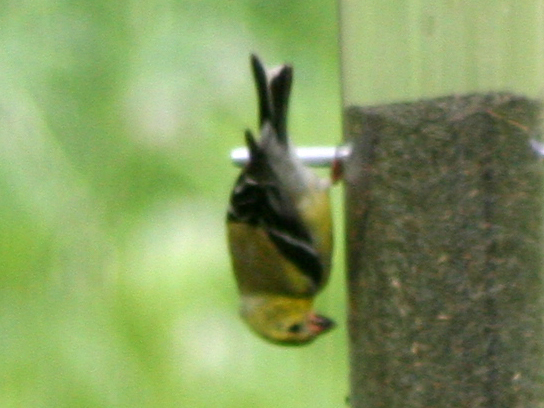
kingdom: Animalia
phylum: Chordata
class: Aves
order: Passeriformes
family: Fringillidae
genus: Spinus
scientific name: Spinus tristis
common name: American goldfinch
